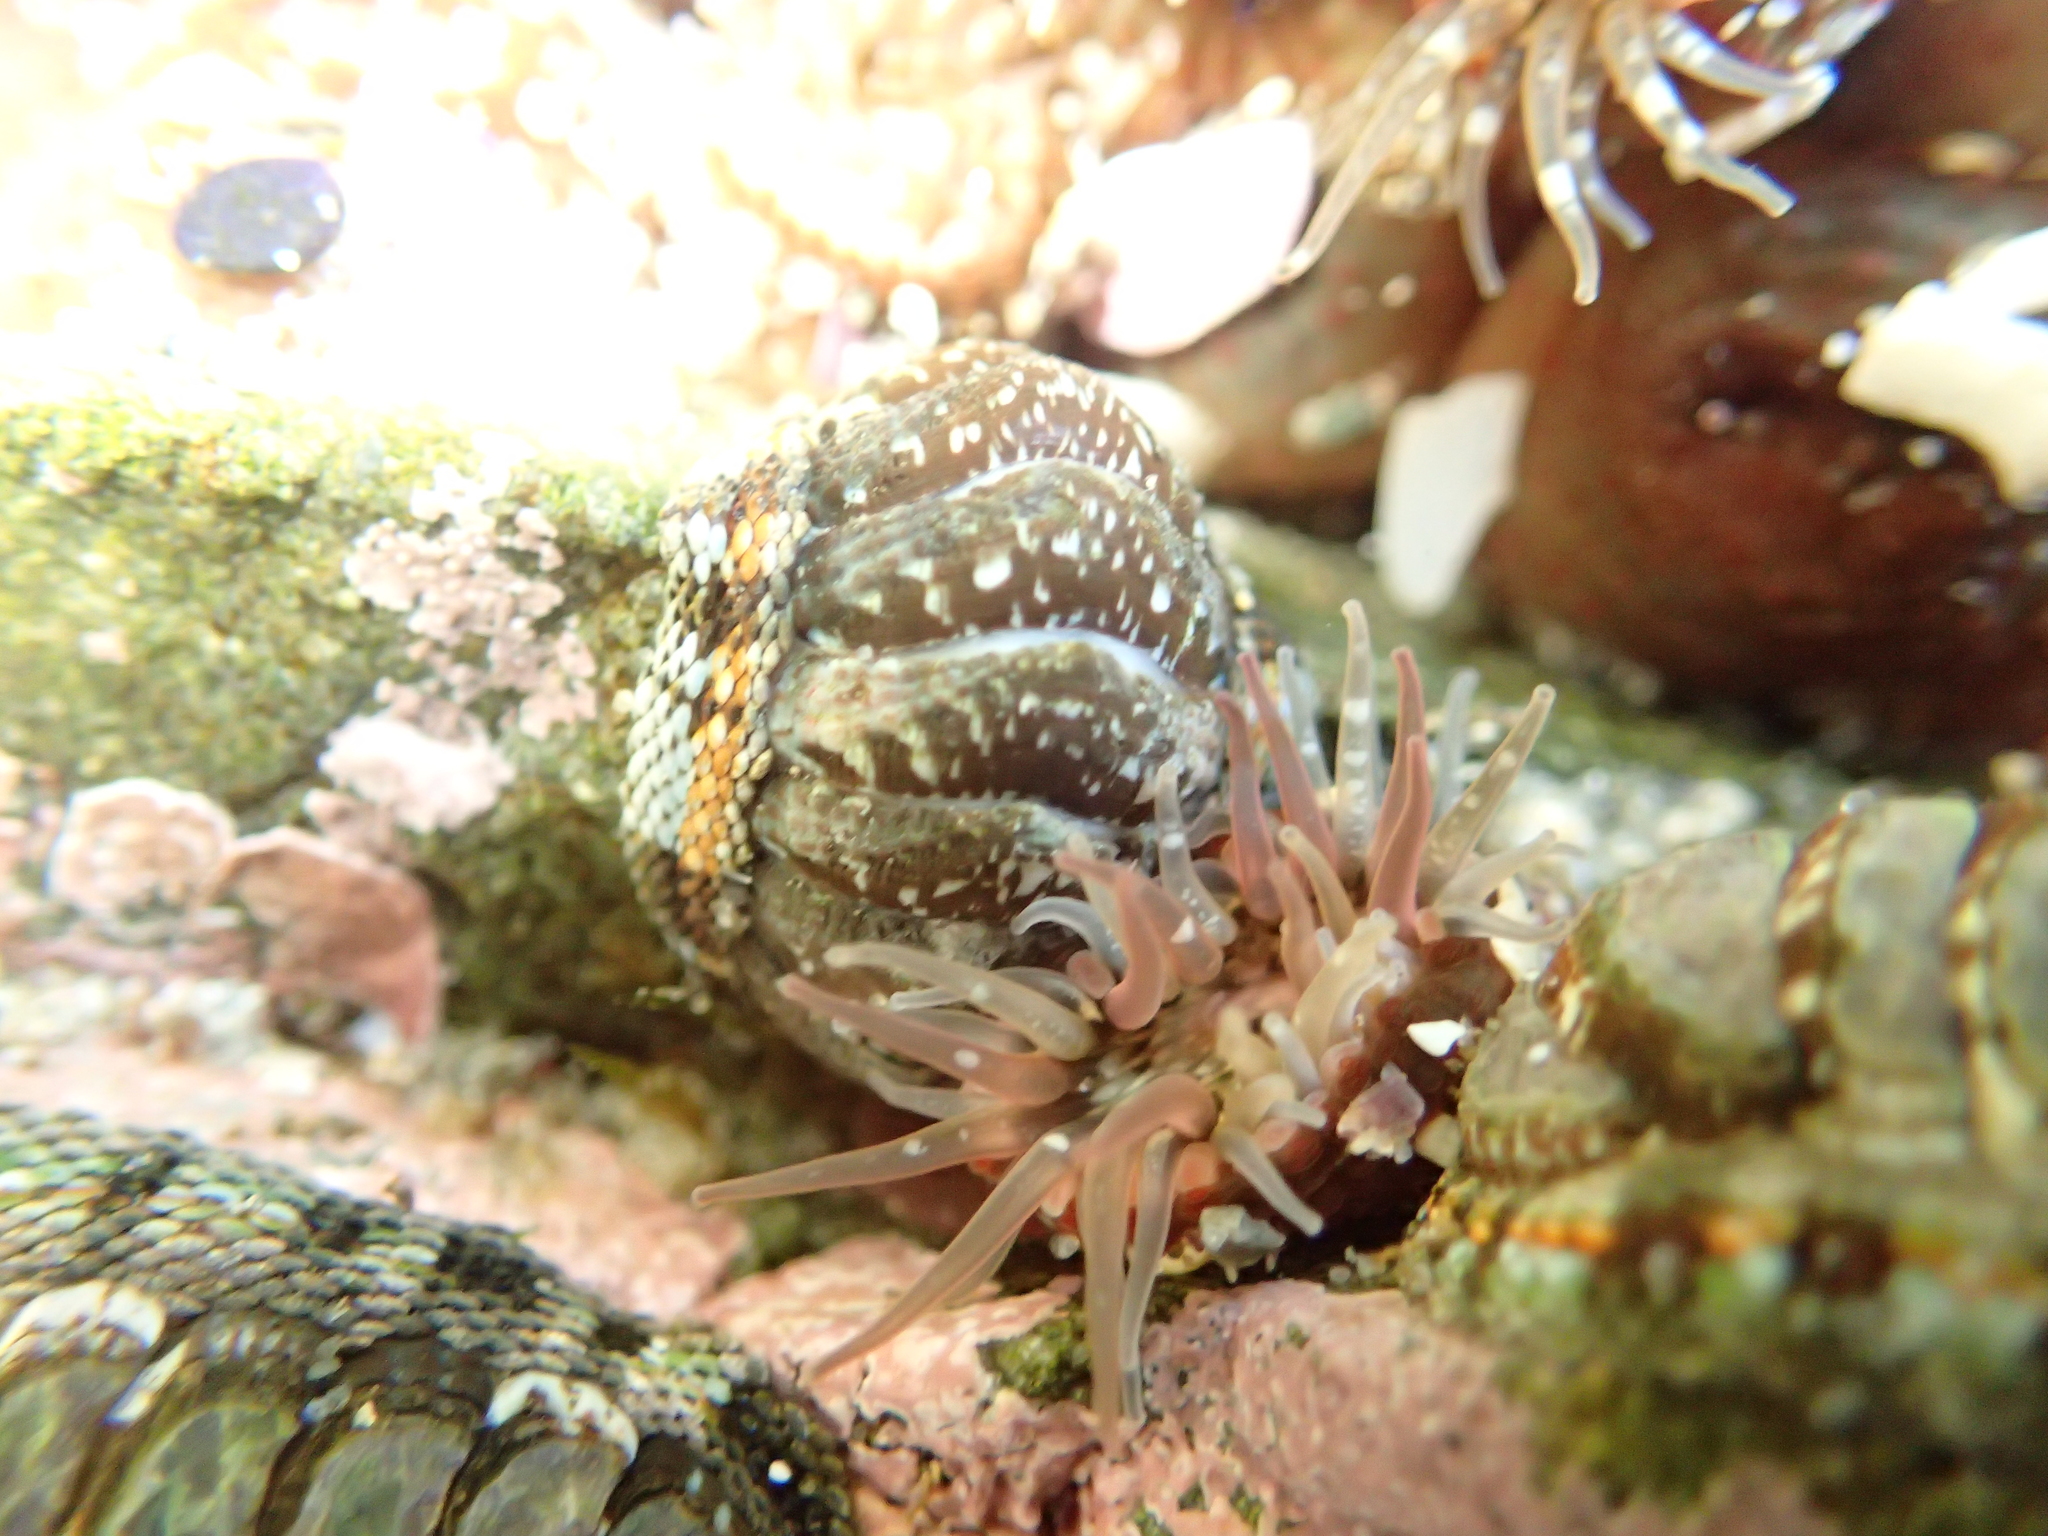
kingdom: Animalia
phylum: Mollusca
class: Polyplacophora
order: Chitonida
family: Chitonidae
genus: Sypharochiton
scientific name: Sypharochiton sinclairi
